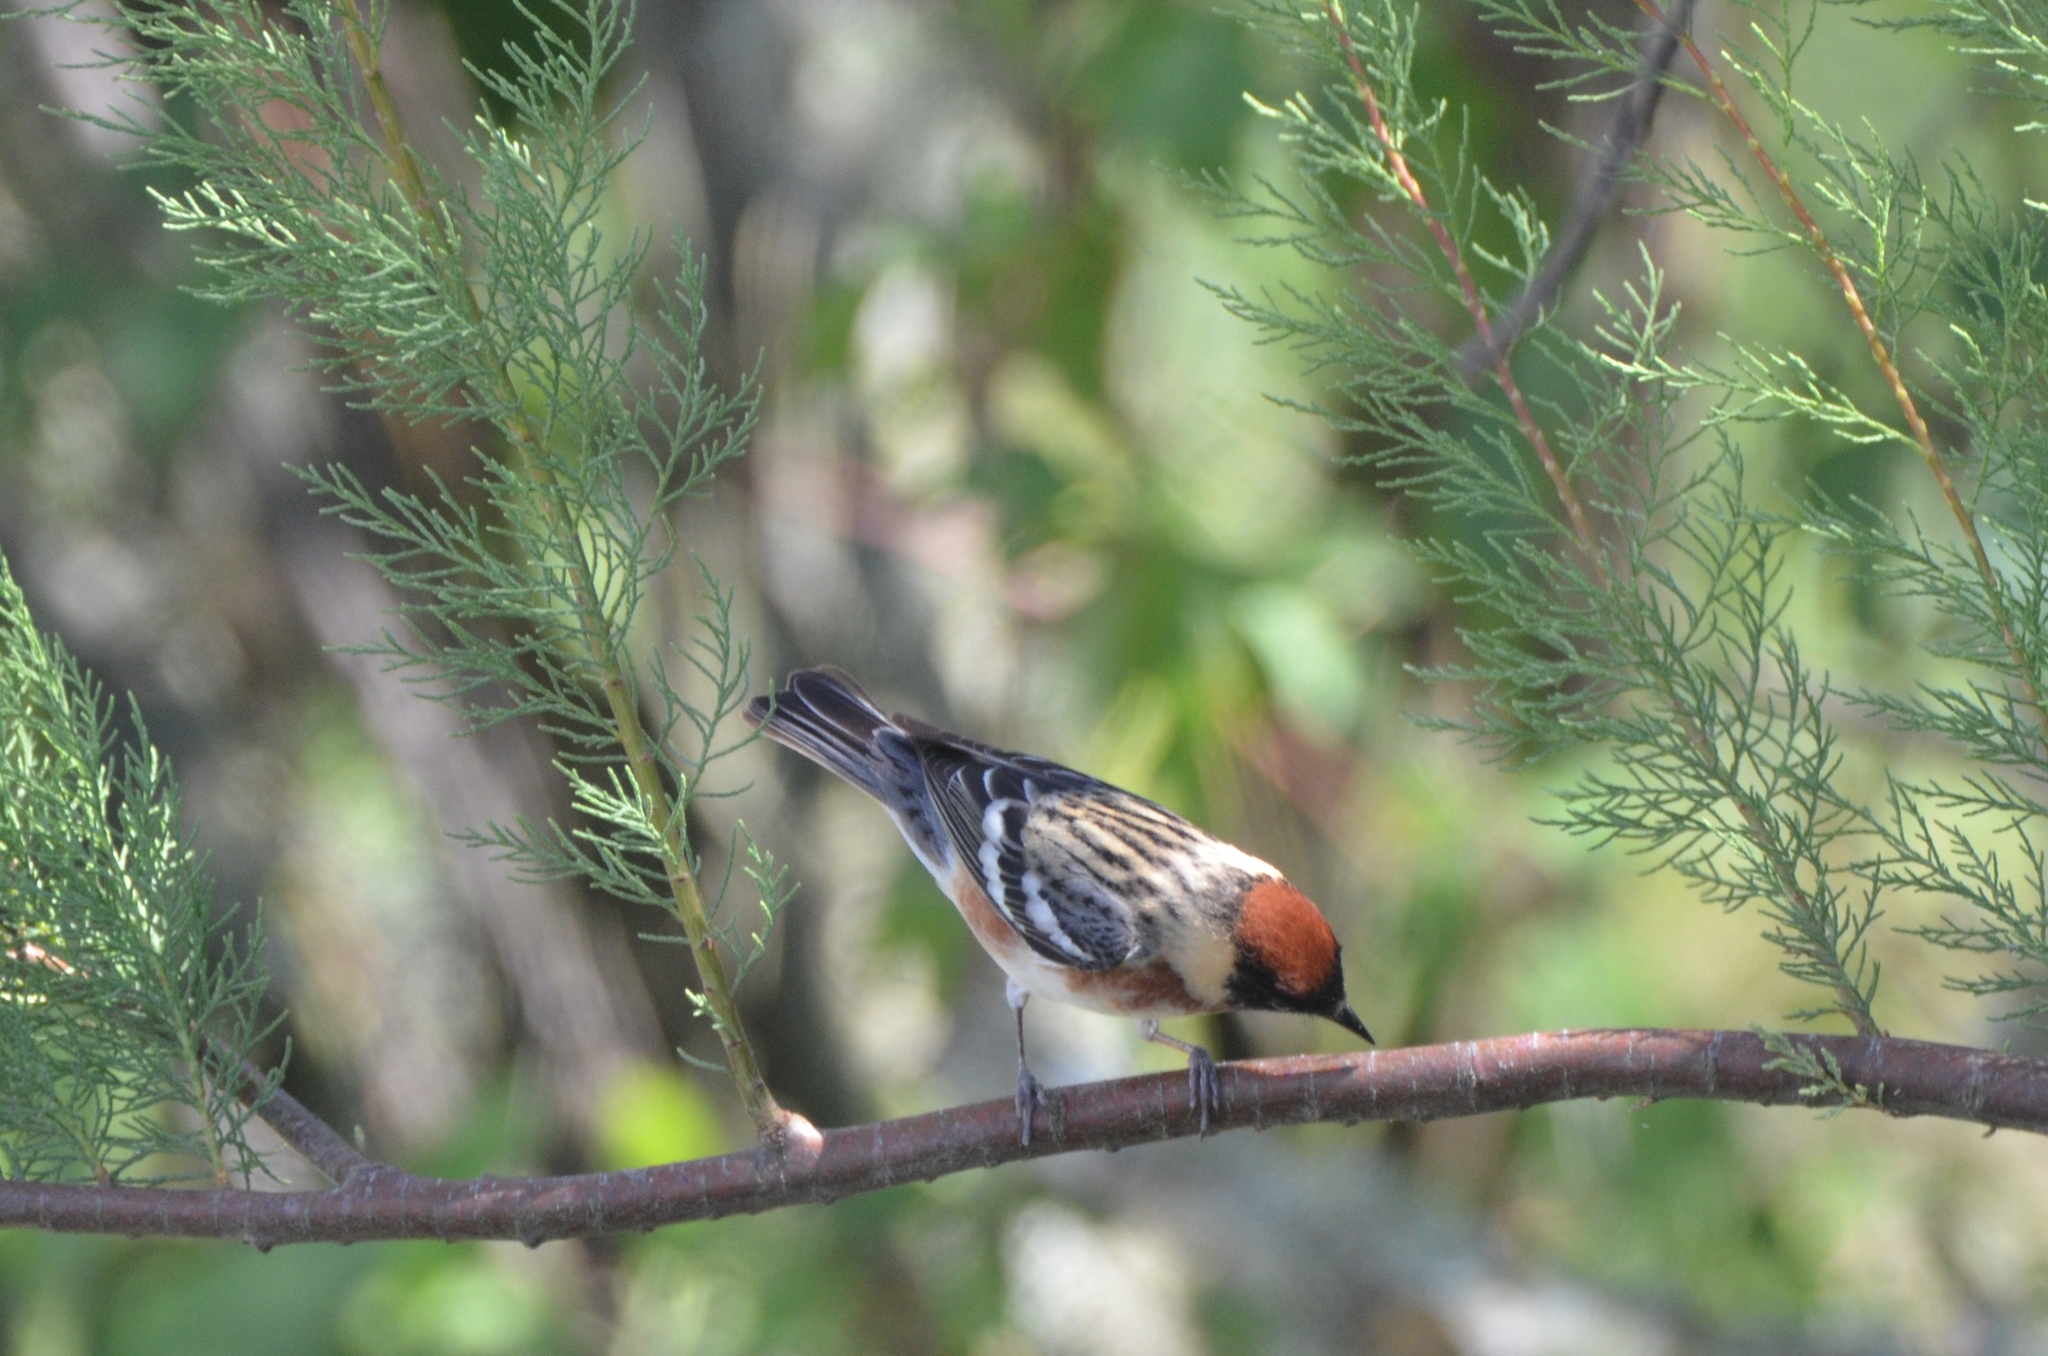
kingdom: Animalia
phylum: Chordata
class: Aves
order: Passeriformes
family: Parulidae
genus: Setophaga
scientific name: Setophaga castanea
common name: Bay-breasted warbler
